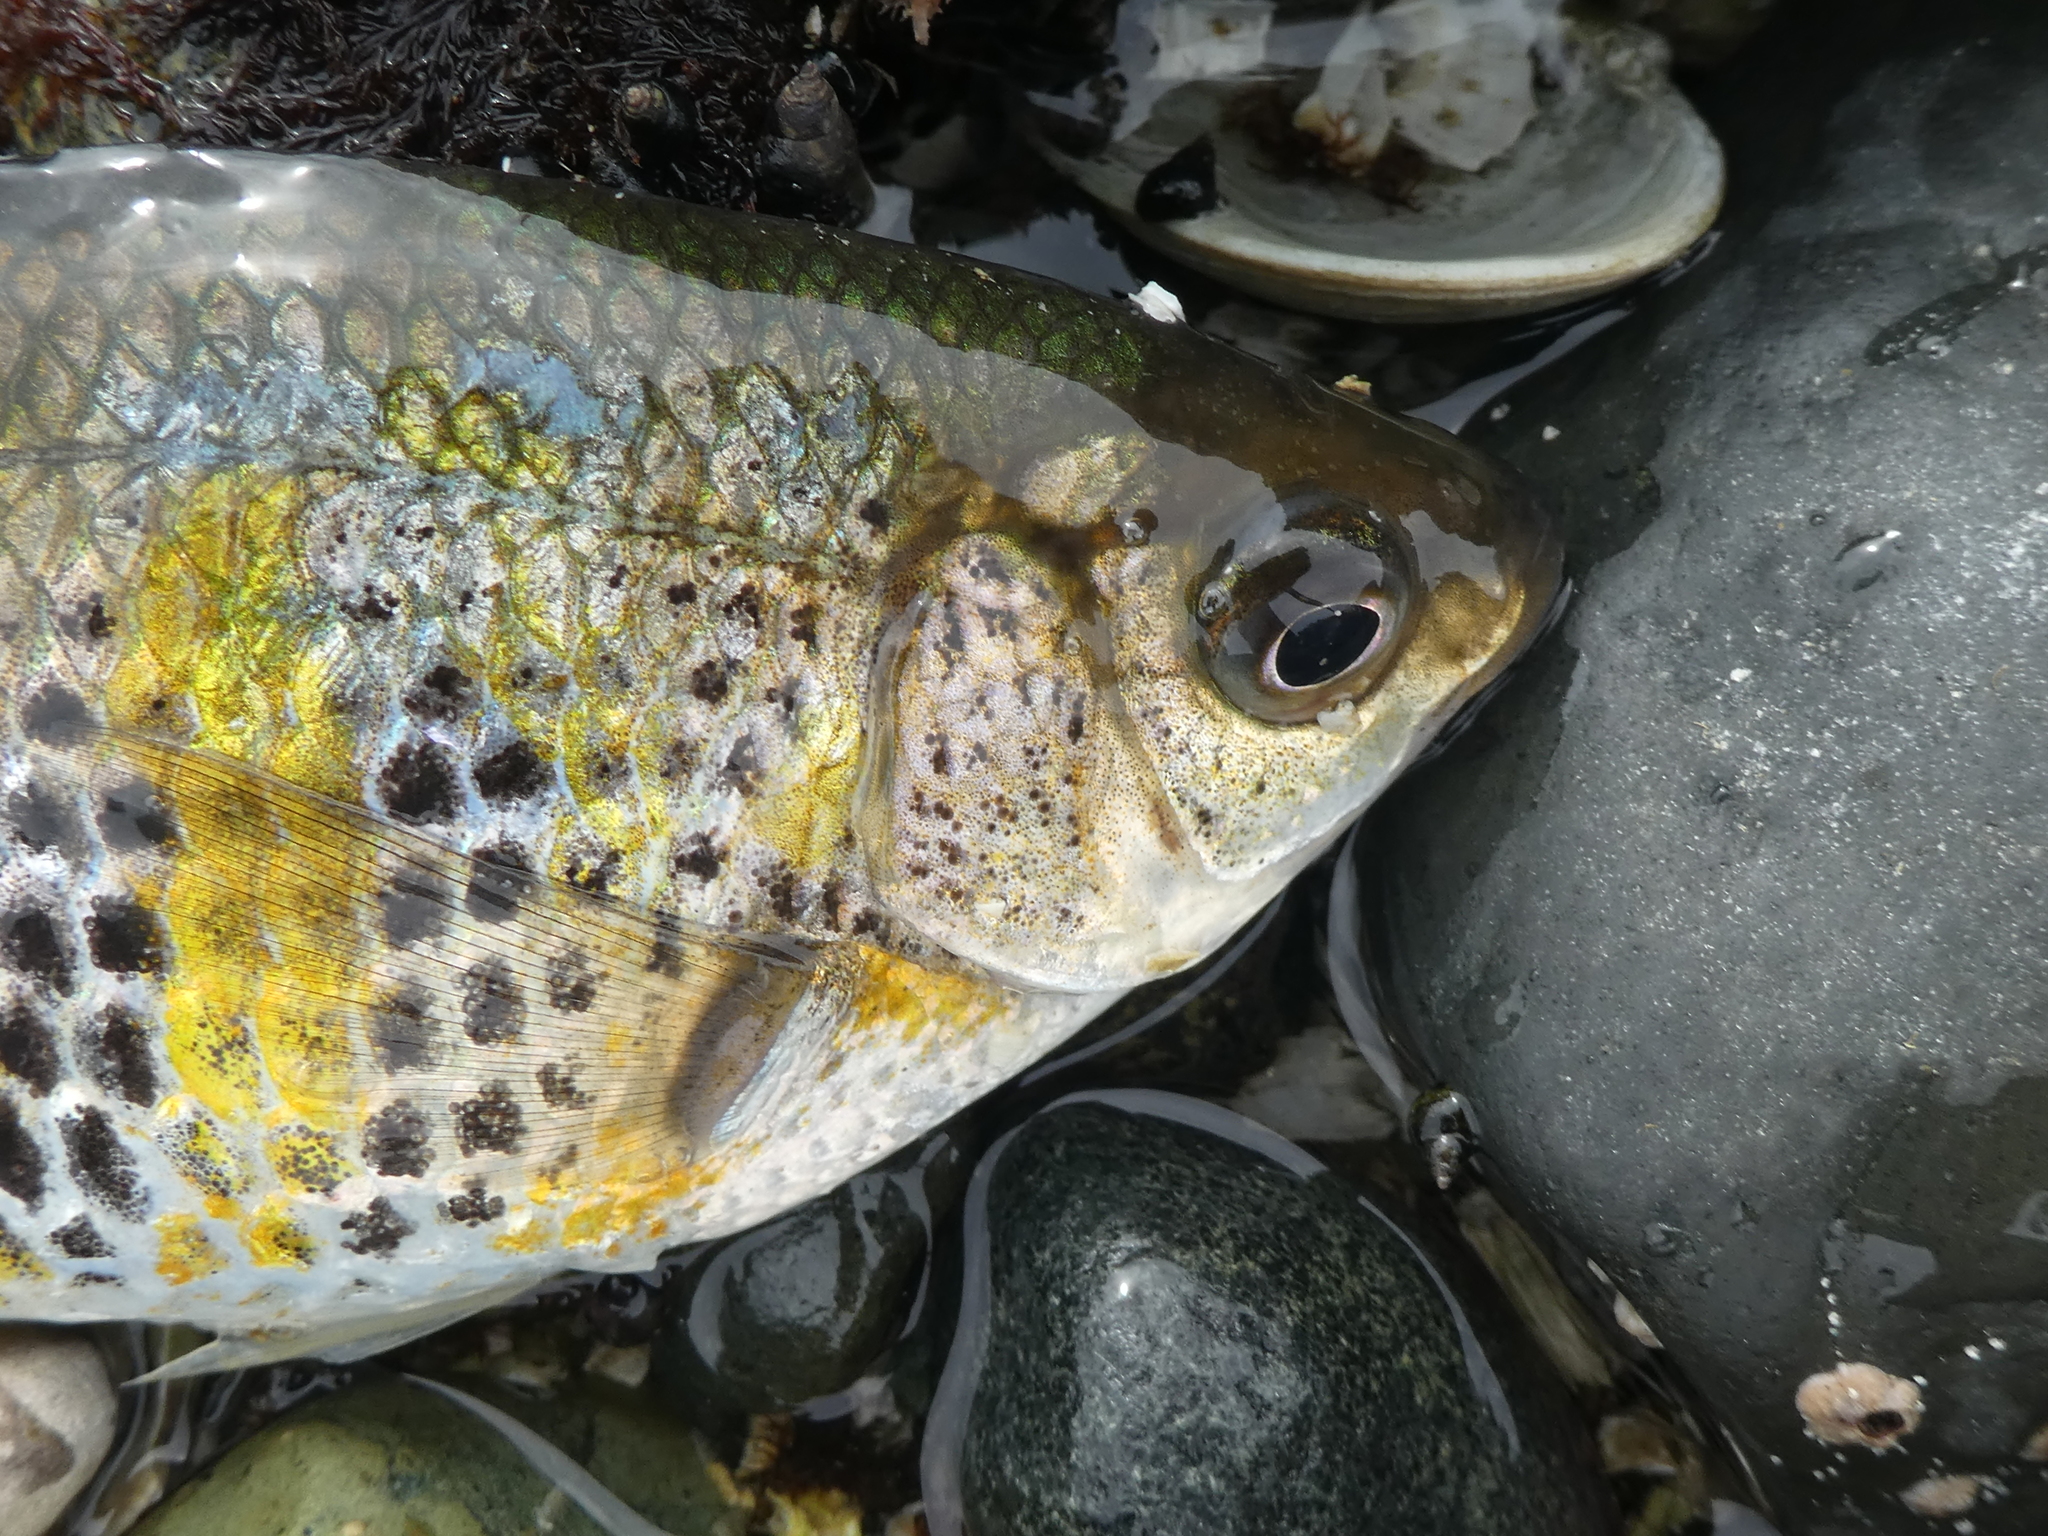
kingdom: Animalia
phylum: Chordata
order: Perciformes
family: Embiotocidae
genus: Cymatogaster
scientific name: Cymatogaster aggregata
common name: Shiner perch
